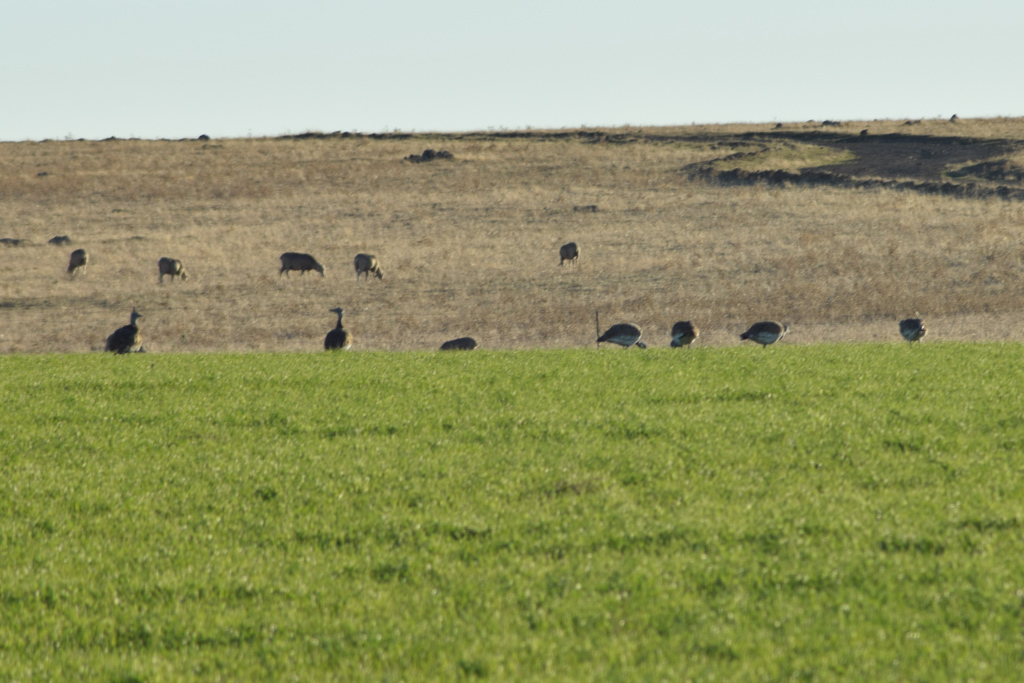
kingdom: Animalia
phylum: Chordata
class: Aves
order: Otidiformes
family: Otididae
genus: Otis
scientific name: Otis tarda
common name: Great bustard
